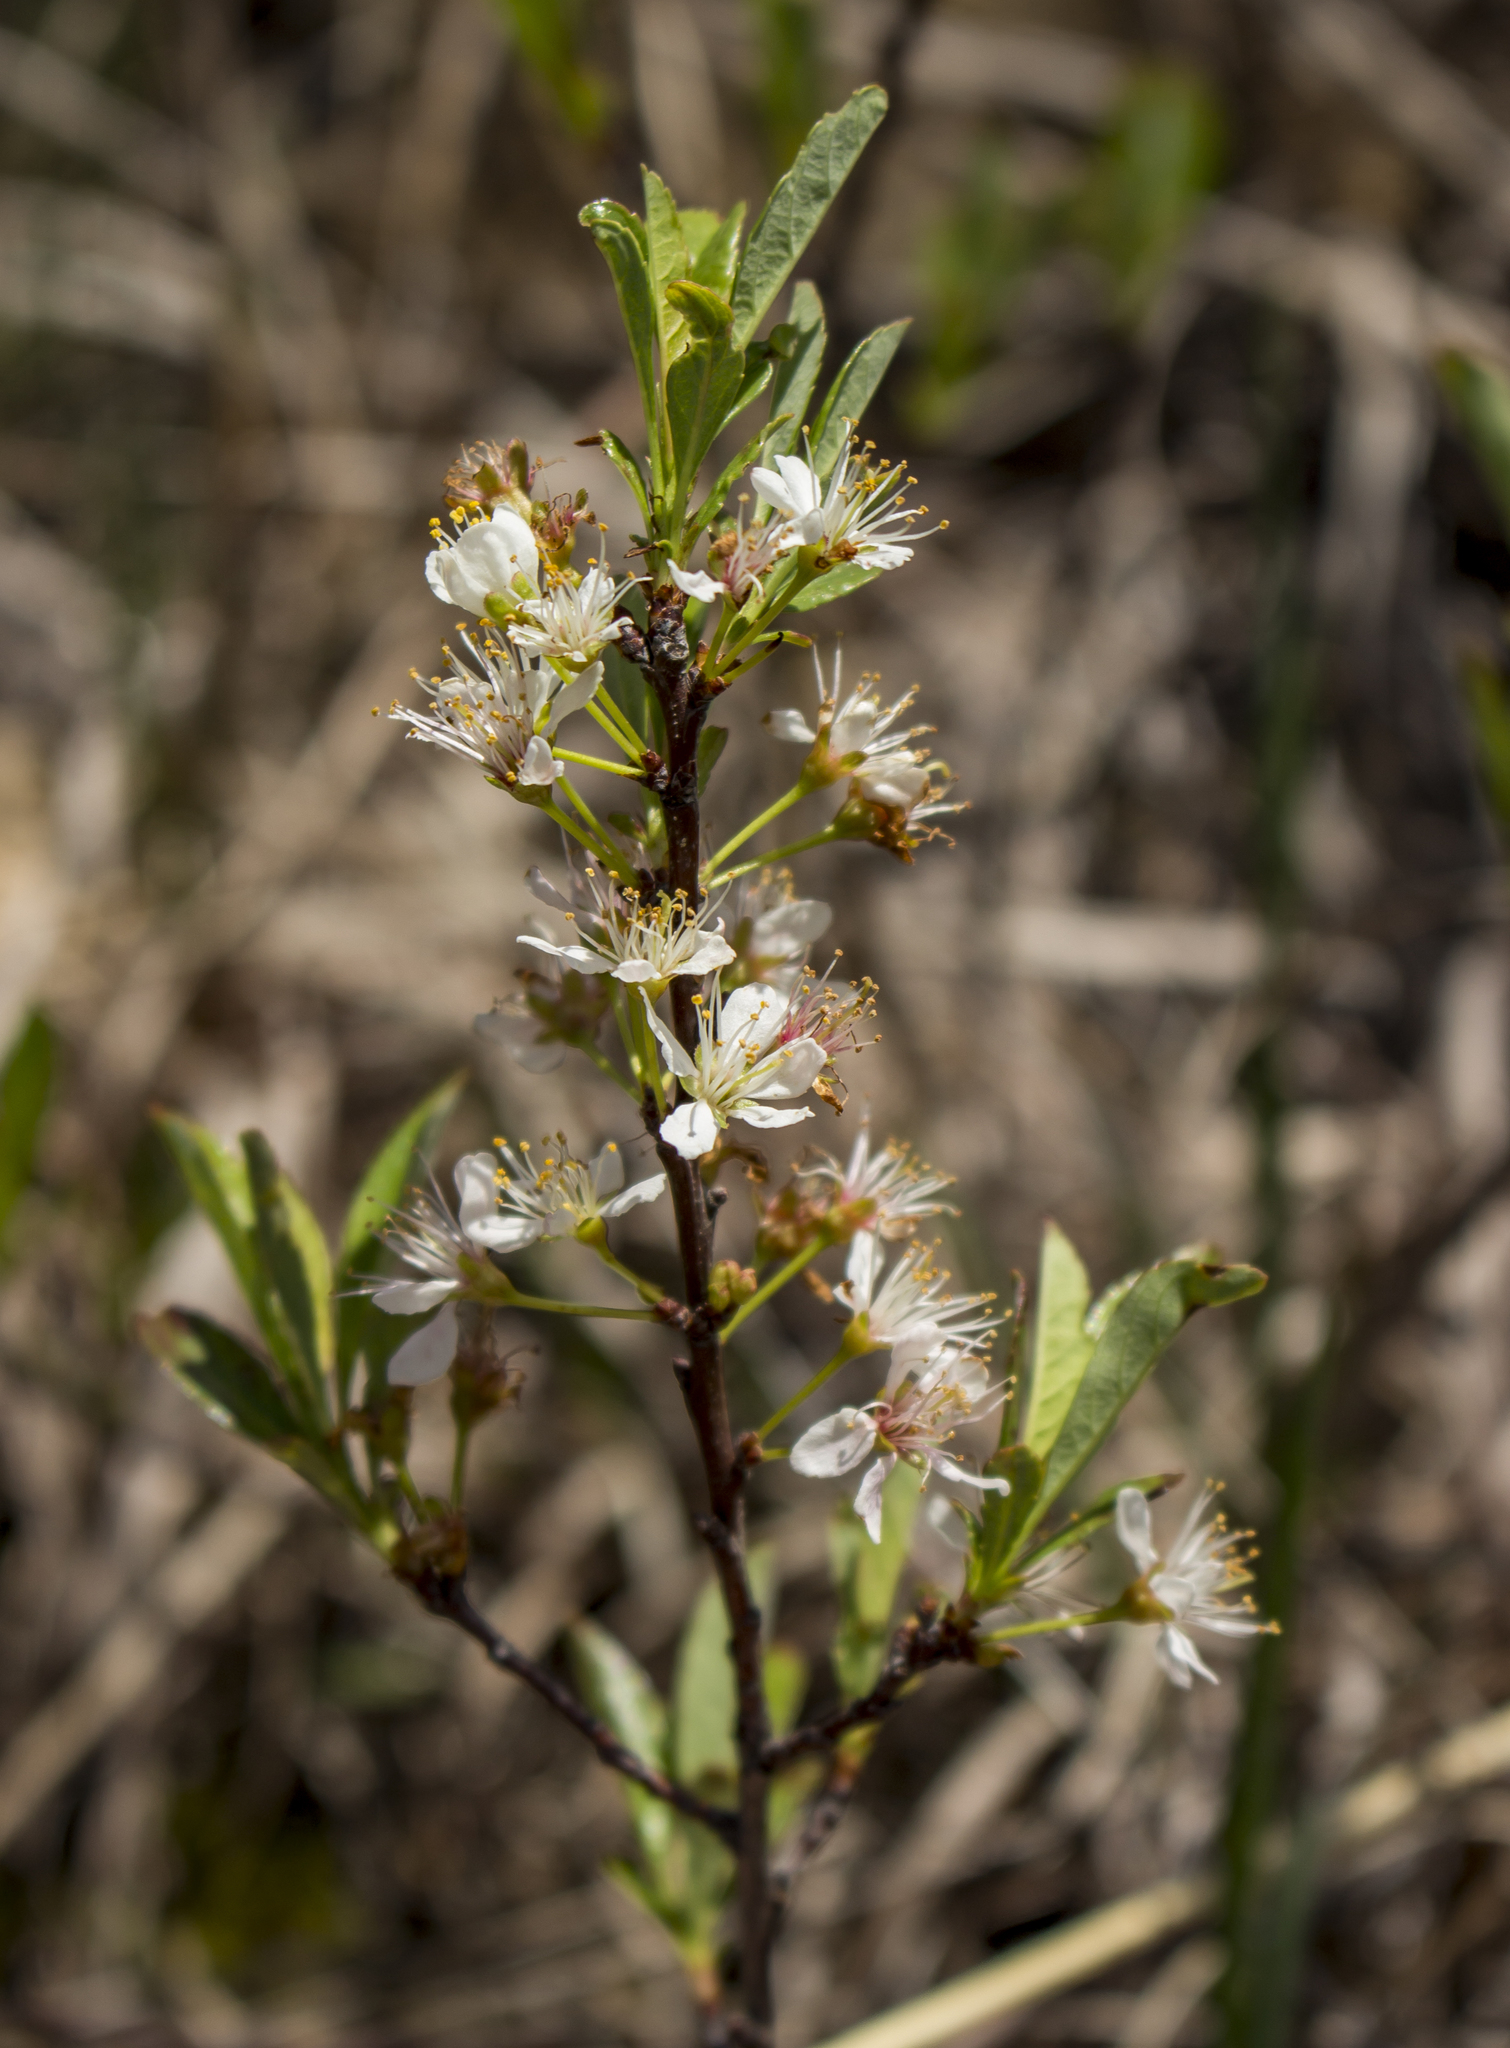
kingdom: Plantae
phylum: Tracheophyta
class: Magnoliopsida
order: Rosales
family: Rosaceae
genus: Prunus
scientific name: Prunus pumila
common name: Dwarf cherry
